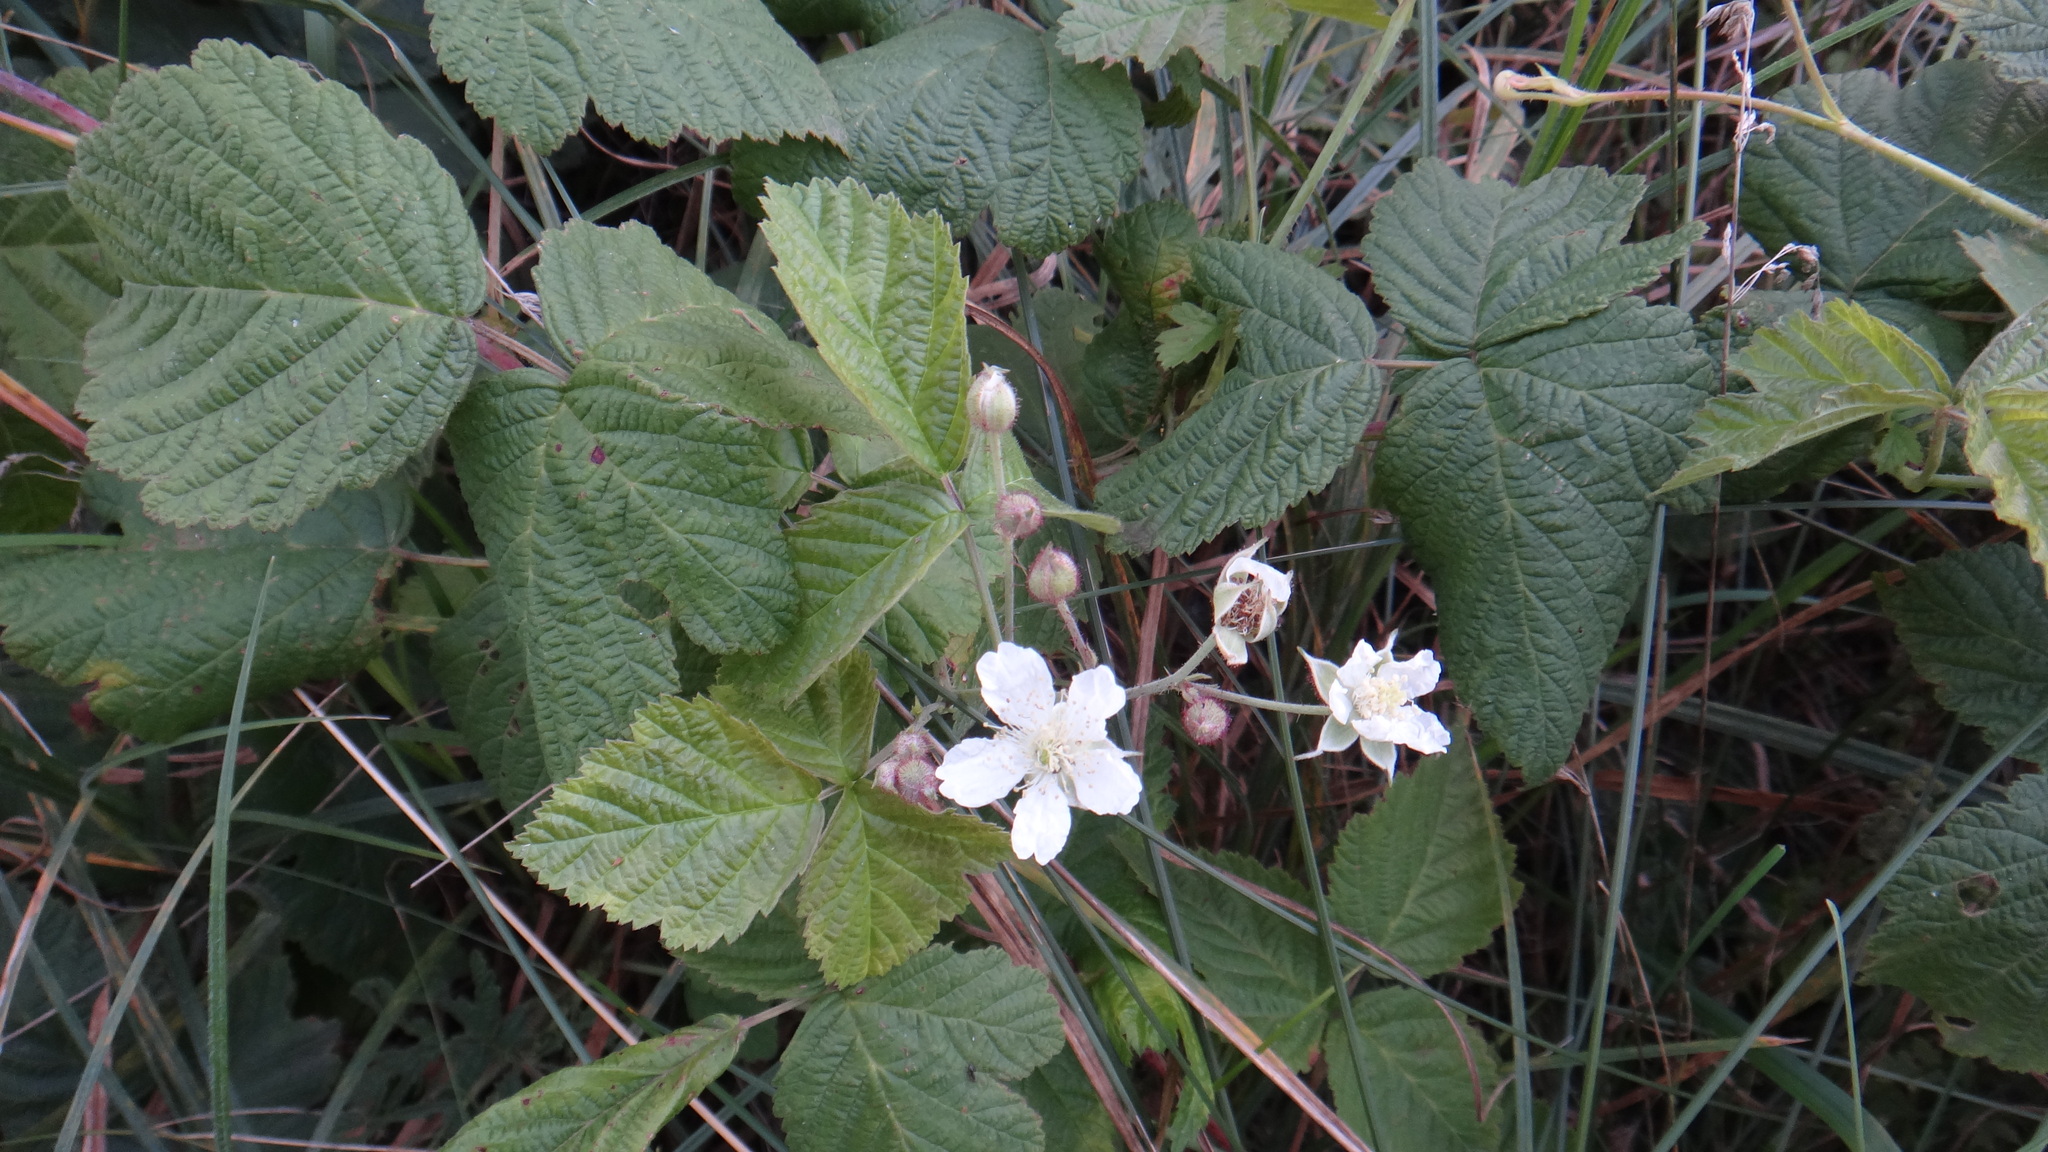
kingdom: Plantae
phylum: Tracheophyta
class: Magnoliopsida
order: Rosales
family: Rosaceae
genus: Rubus
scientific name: Rubus caesius
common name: Dewberry
